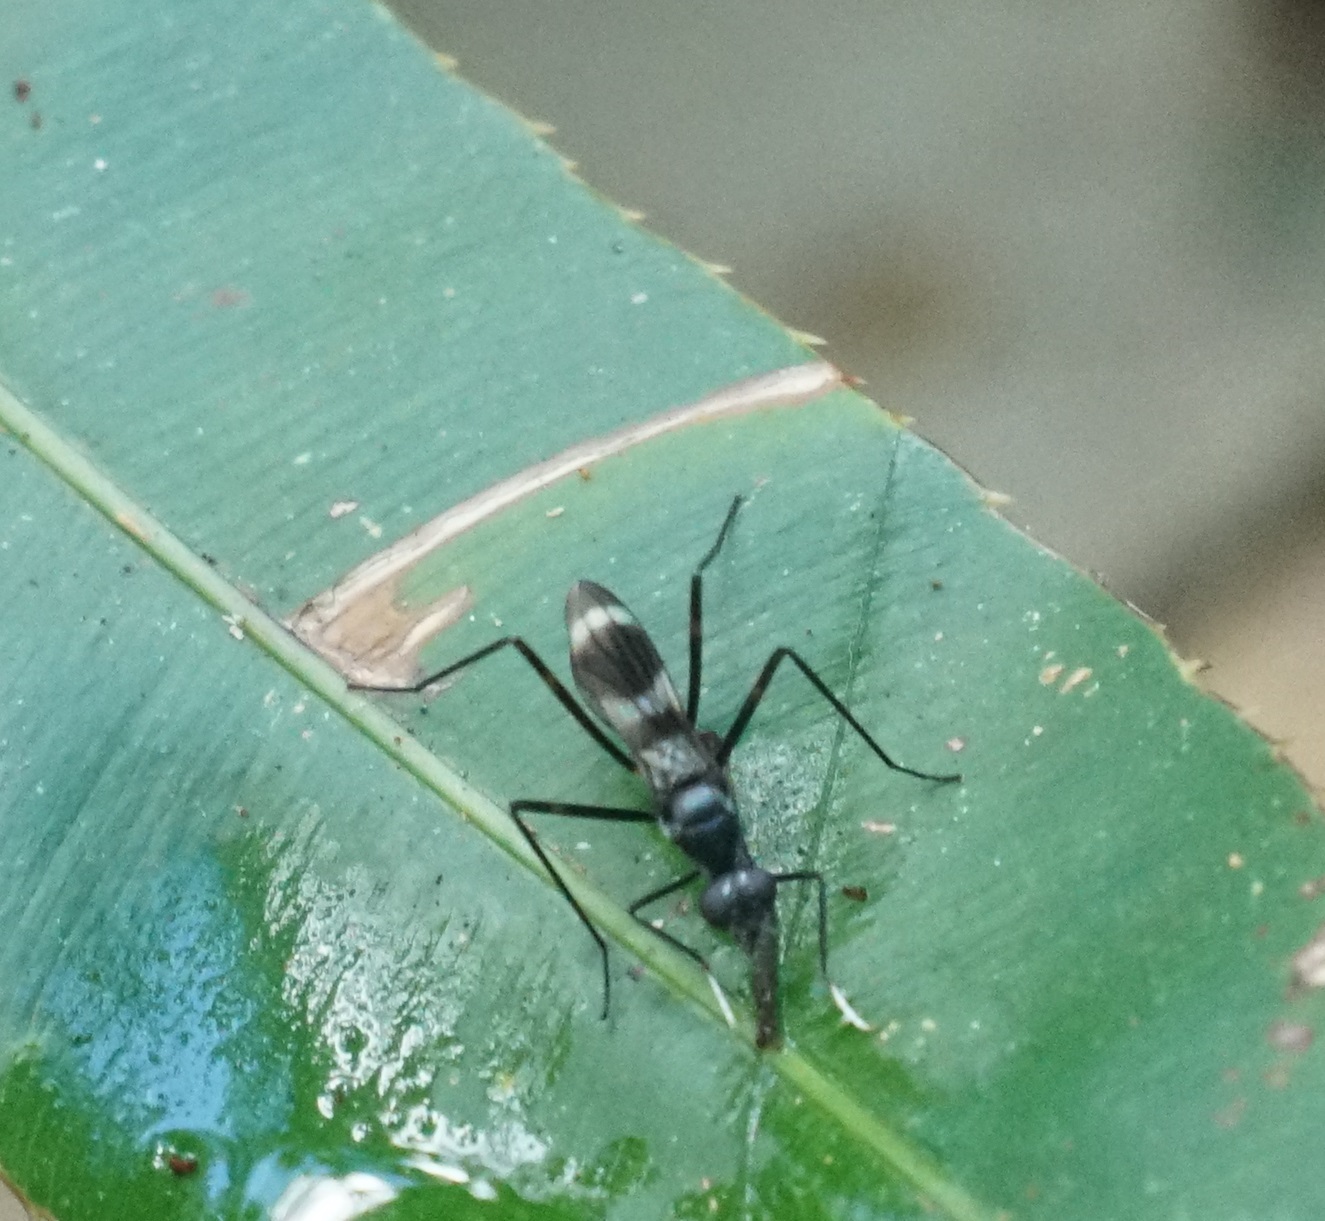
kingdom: Animalia
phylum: Arthropoda
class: Insecta
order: Diptera
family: Micropezidae
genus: Mimegralla
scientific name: Mimegralla australica
